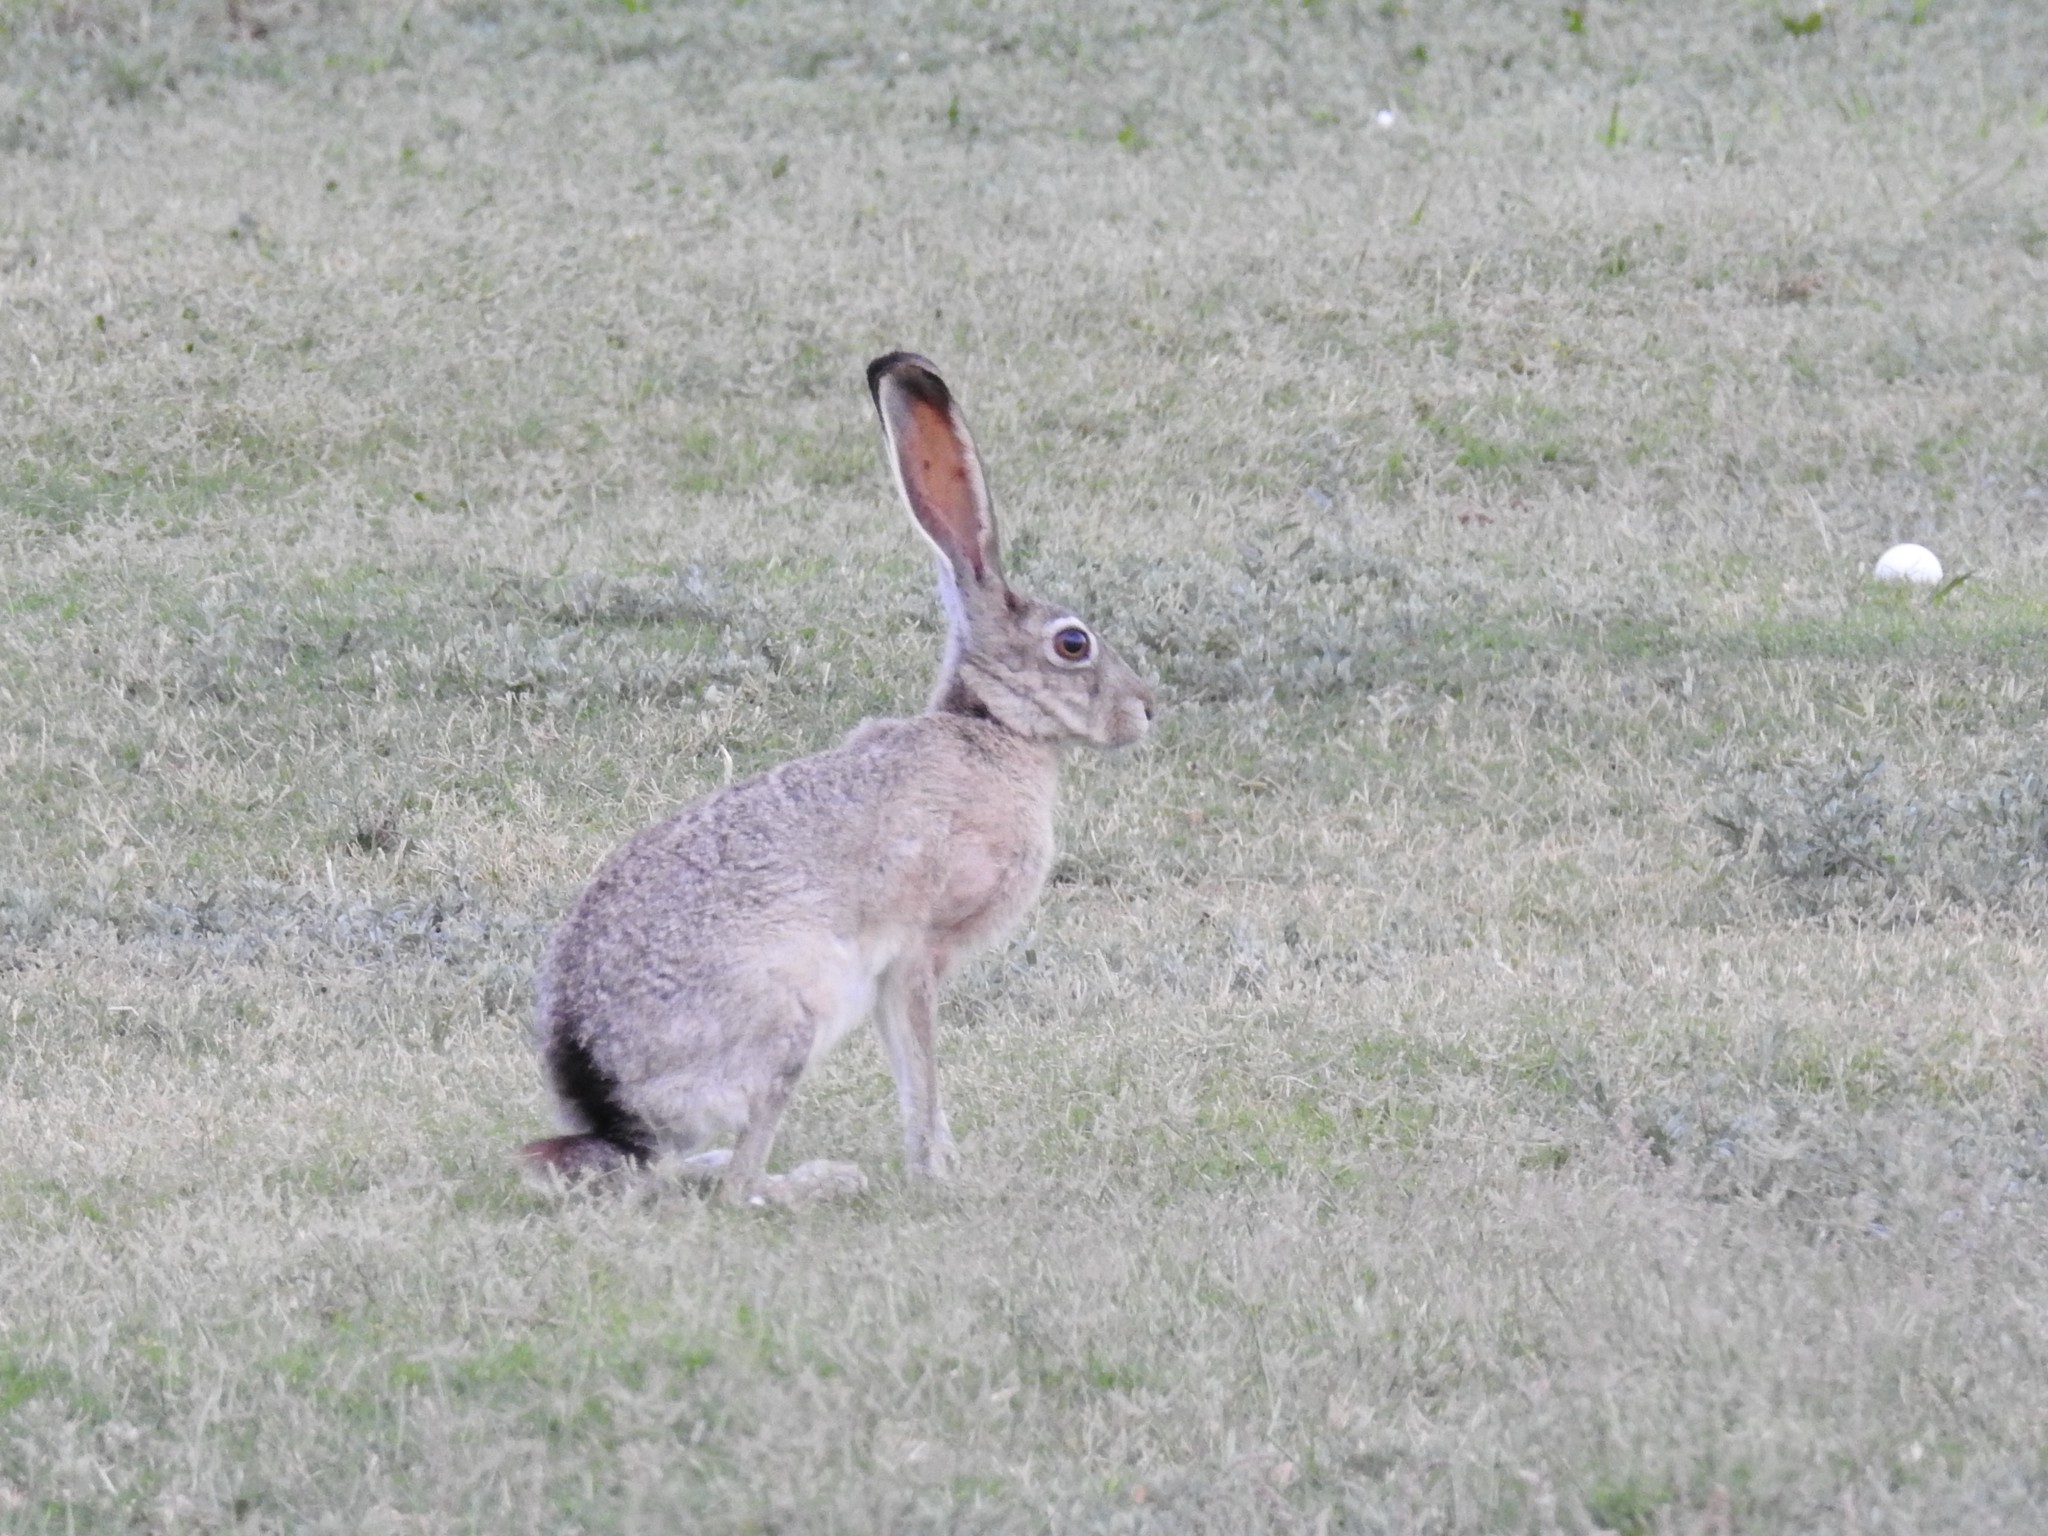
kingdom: Animalia
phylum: Chordata
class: Mammalia
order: Lagomorpha
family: Leporidae
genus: Lepus
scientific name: Lepus californicus
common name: Black-tailed jackrabbit
